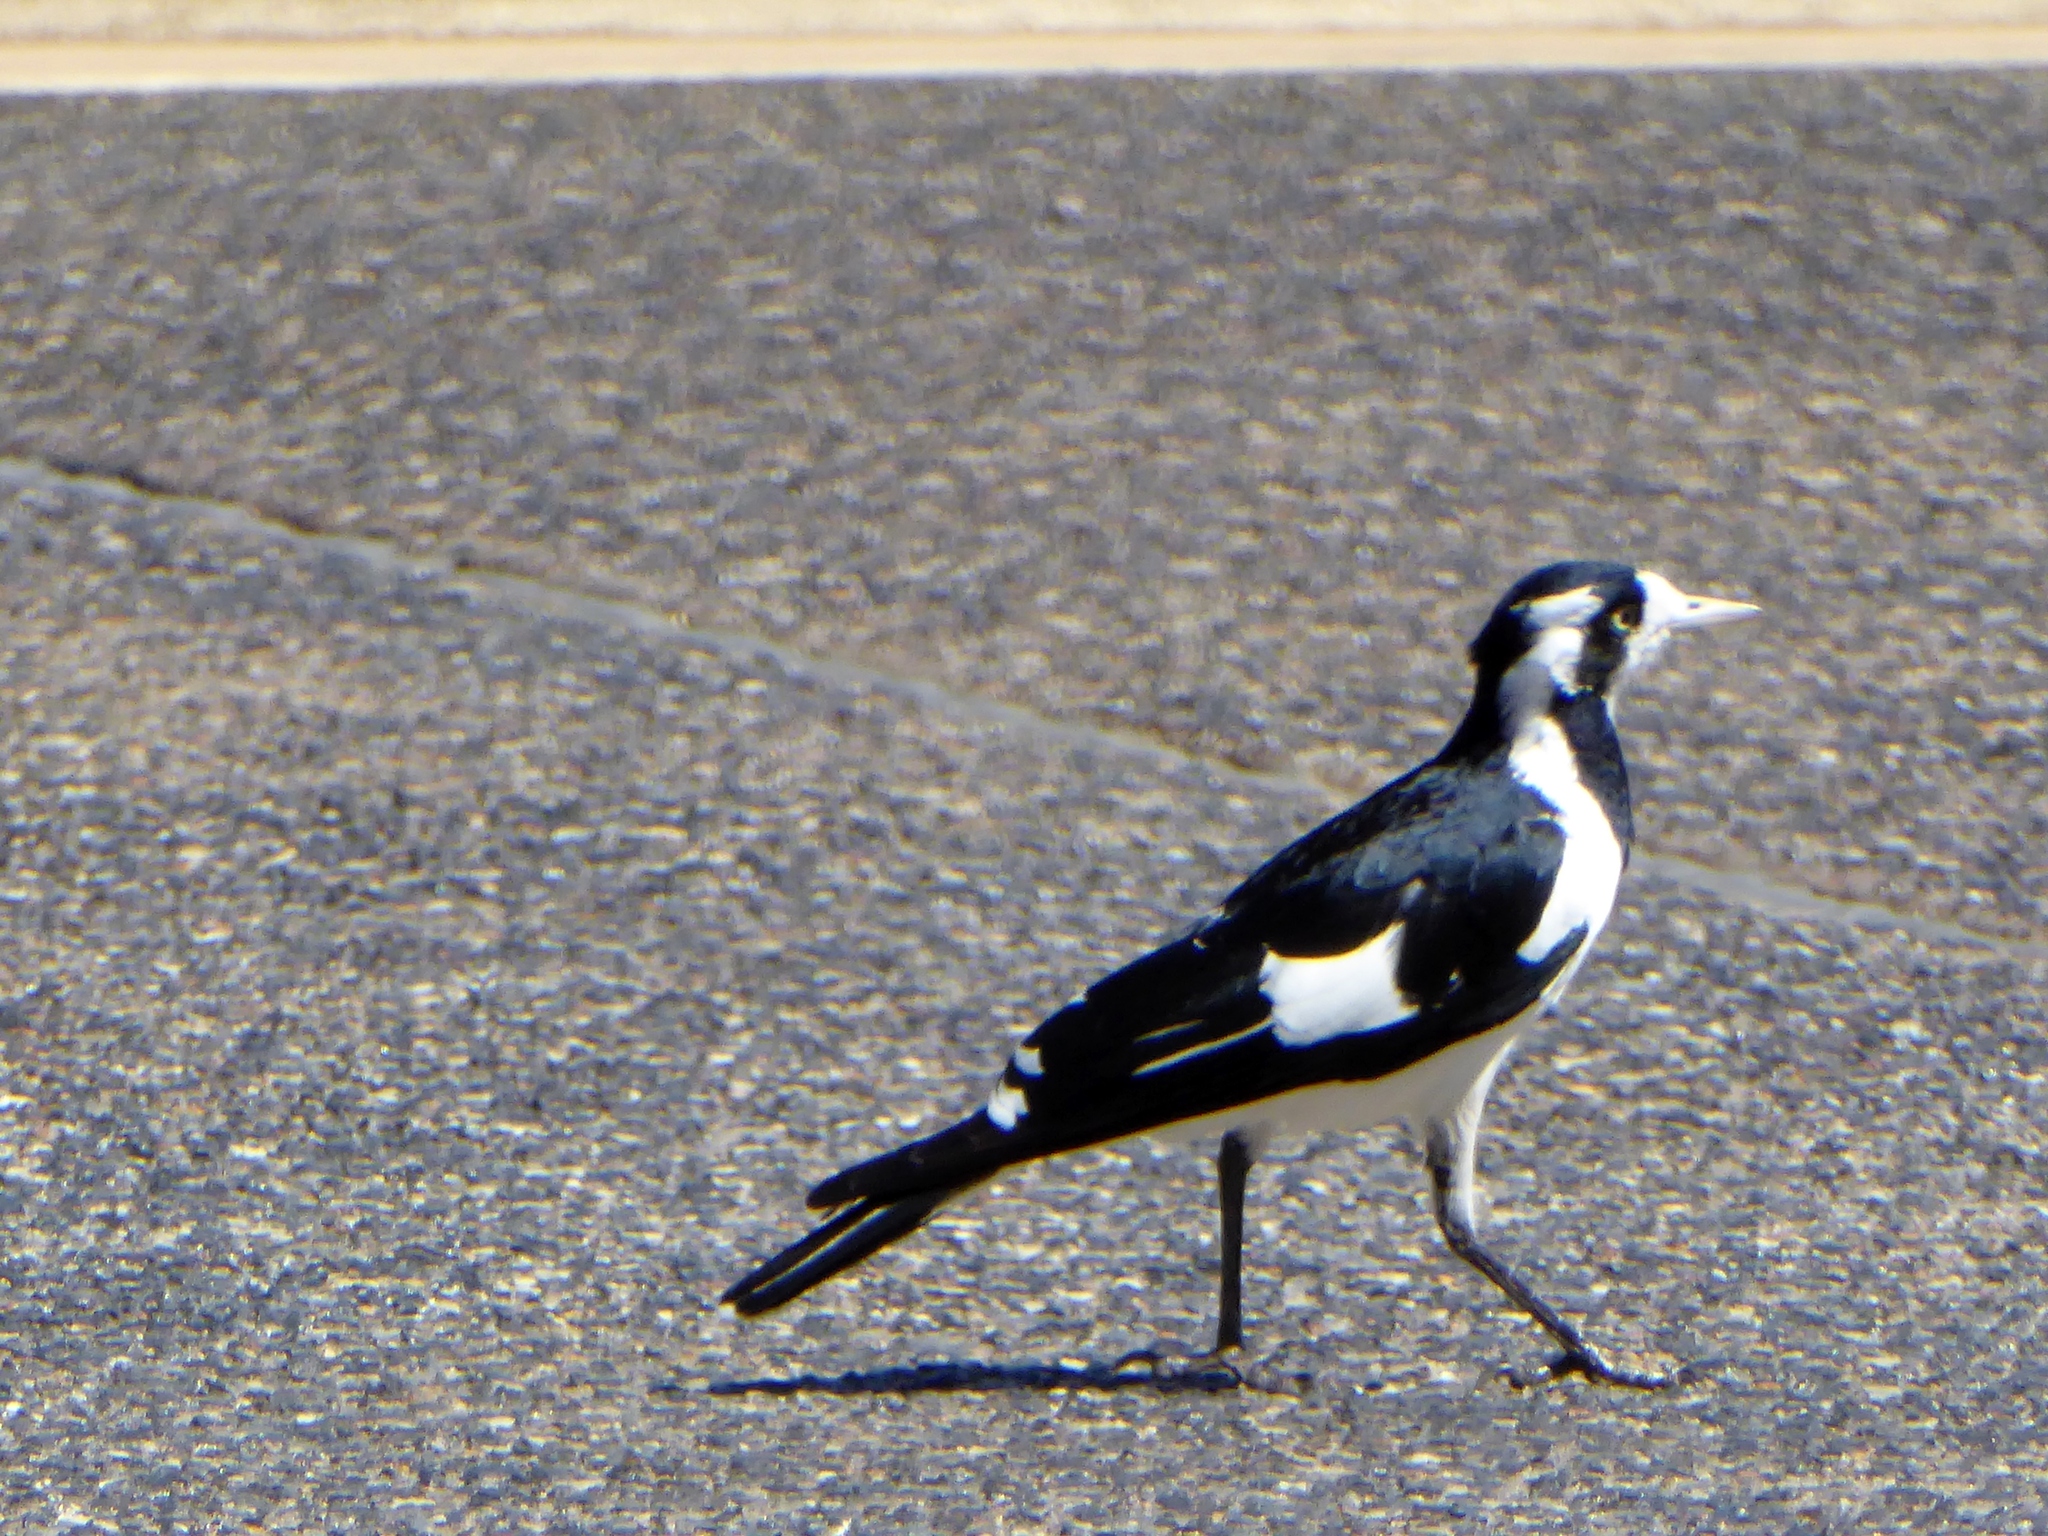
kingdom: Animalia
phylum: Chordata
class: Aves
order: Passeriformes
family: Monarchidae
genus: Grallina
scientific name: Grallina cyanoleuca
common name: Magpie-lark
